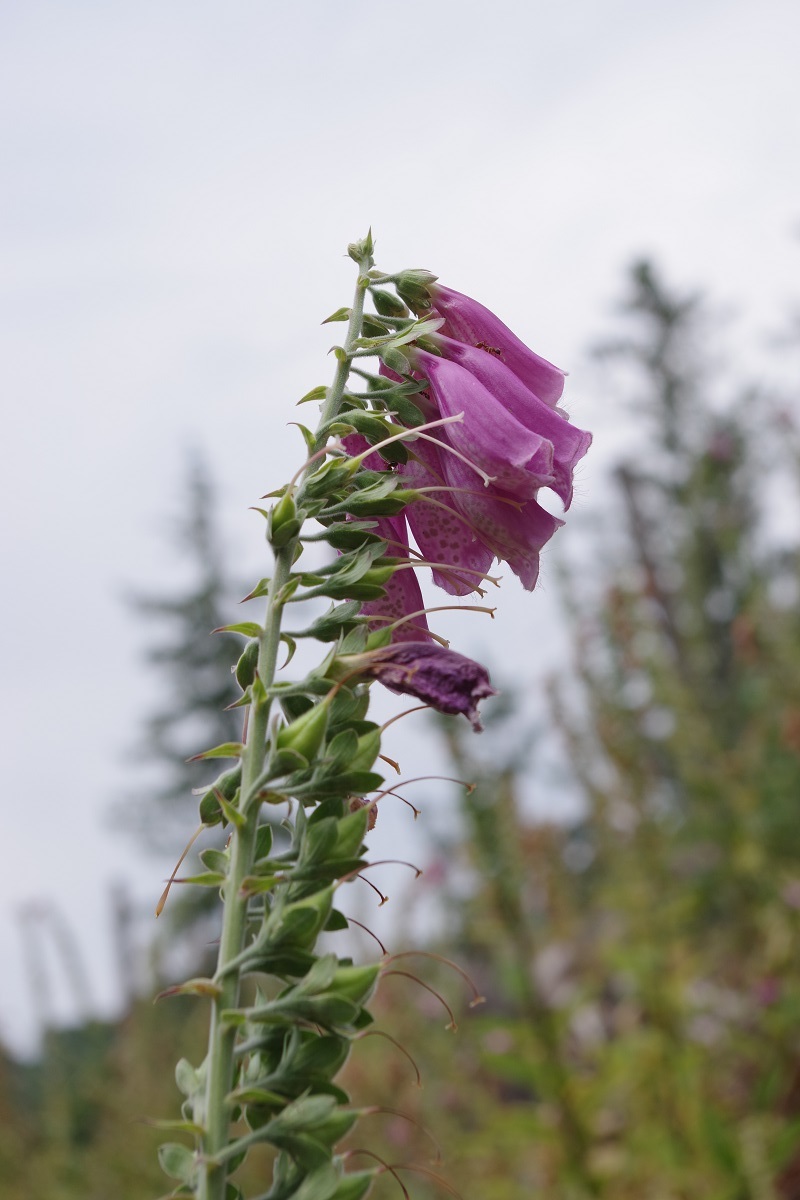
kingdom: Plantae
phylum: Tracheophyta
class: Magnoliopsida
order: Lamiales
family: Plantaginaceae
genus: Digitalis
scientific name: Digitalis purpurea
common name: Foxglove
